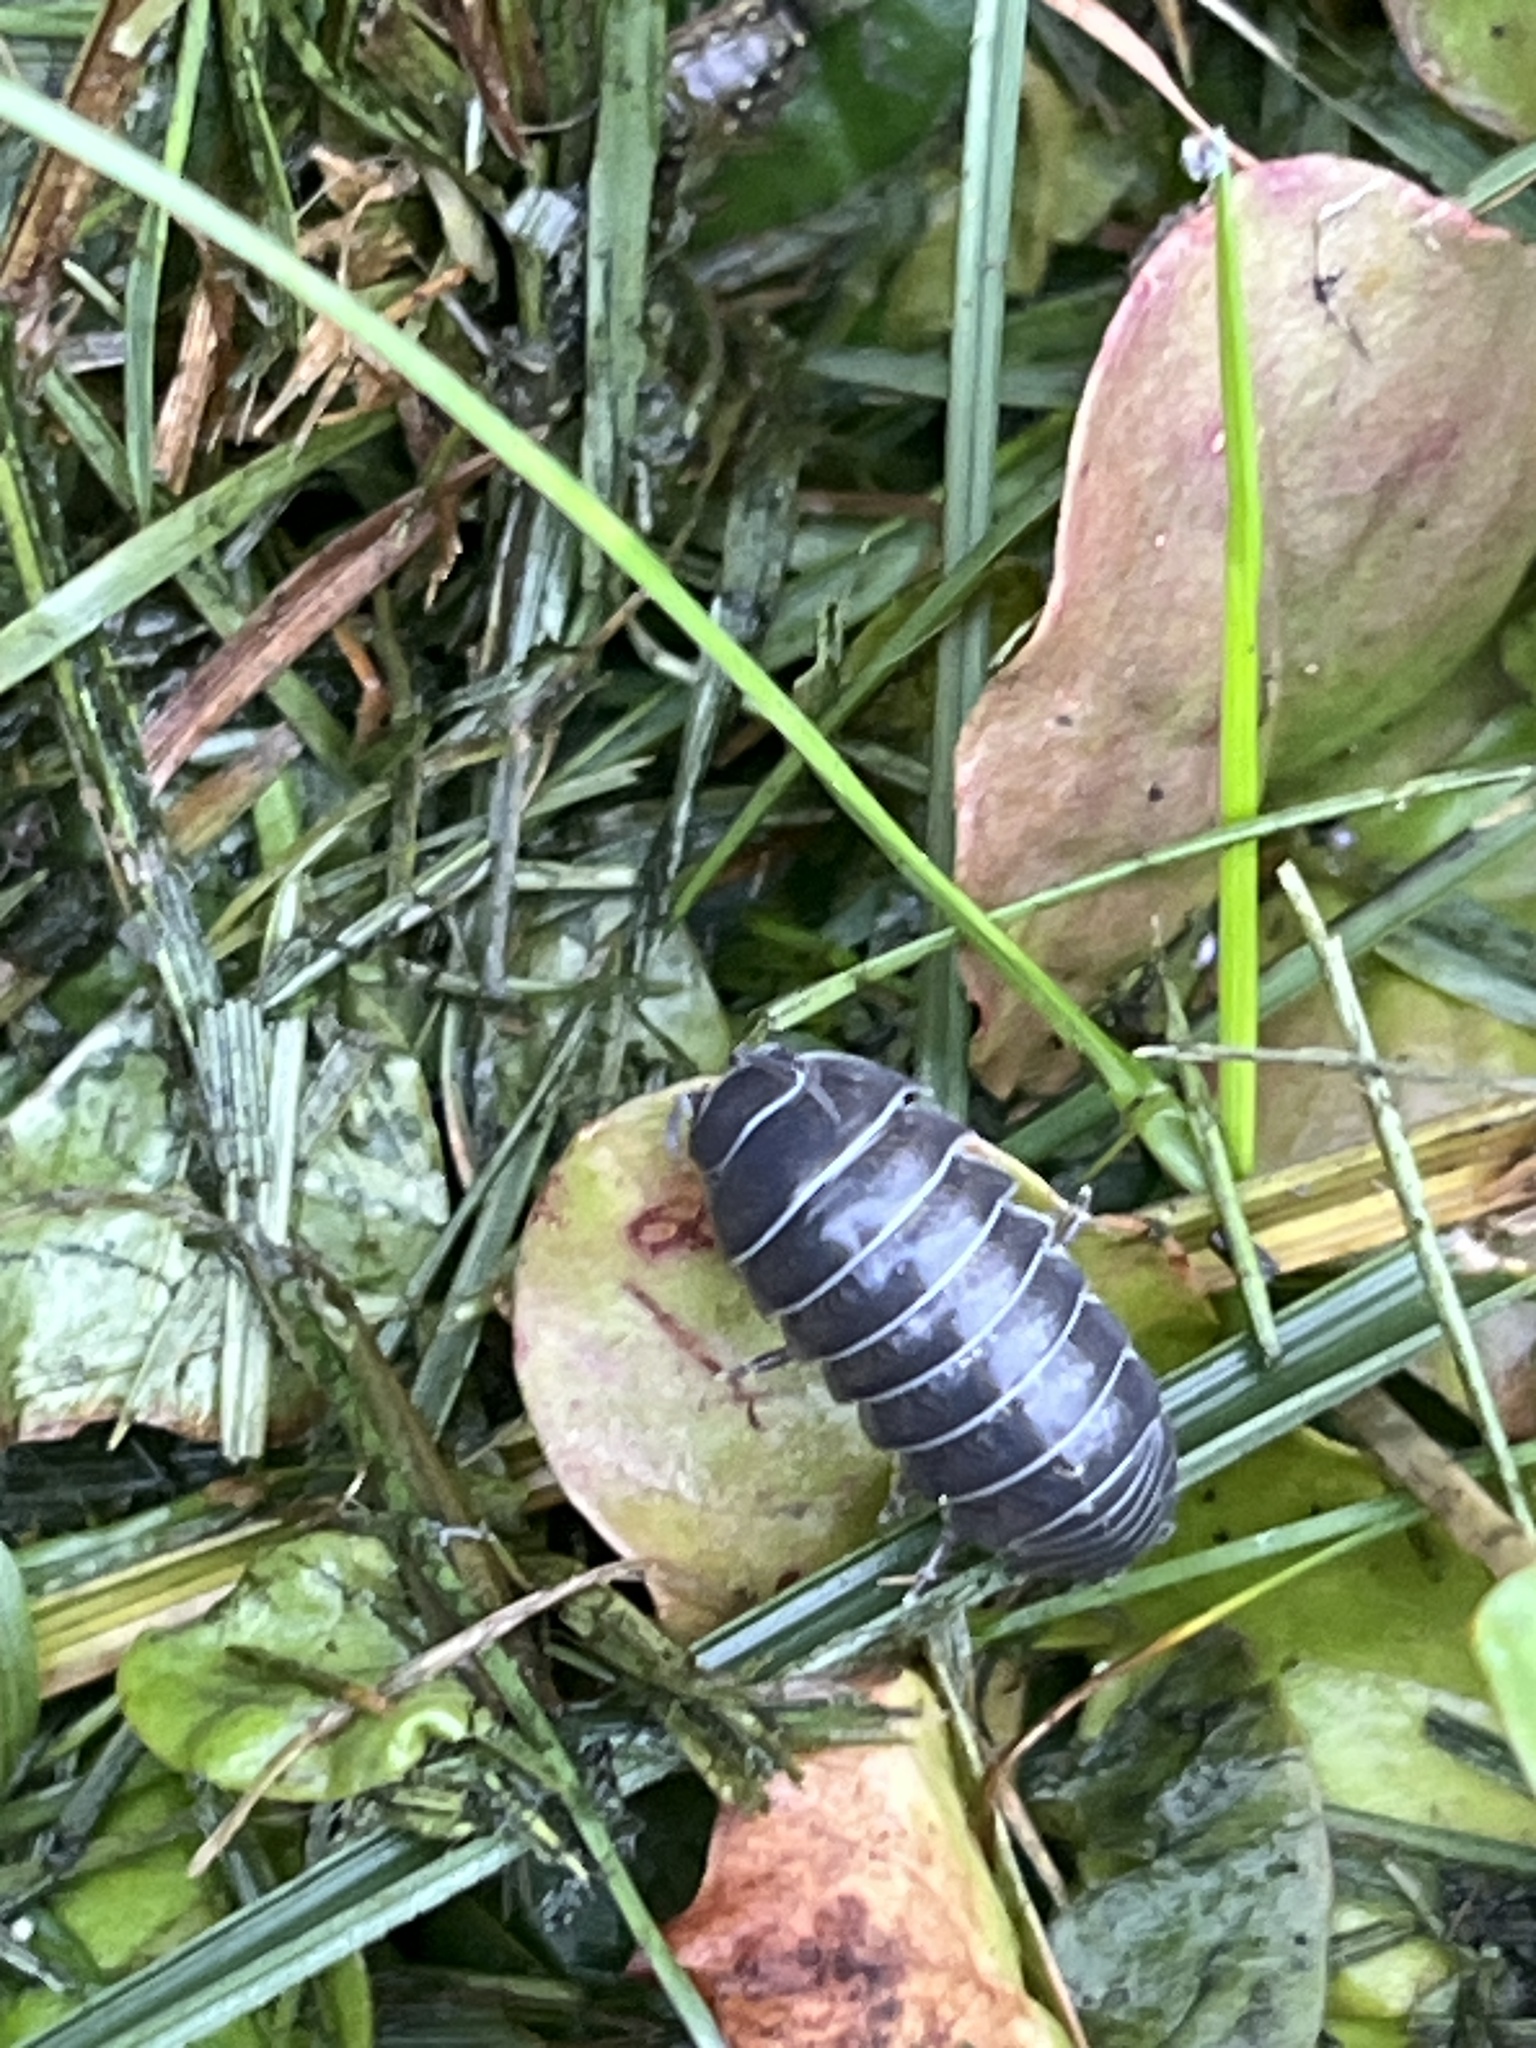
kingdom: Animalia
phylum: Arthropoda
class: Malacostraca
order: Isopoda
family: Armadillidiidae
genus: Armadillidium
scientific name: Armadillidium vulgare
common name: Common pill woodlouse
